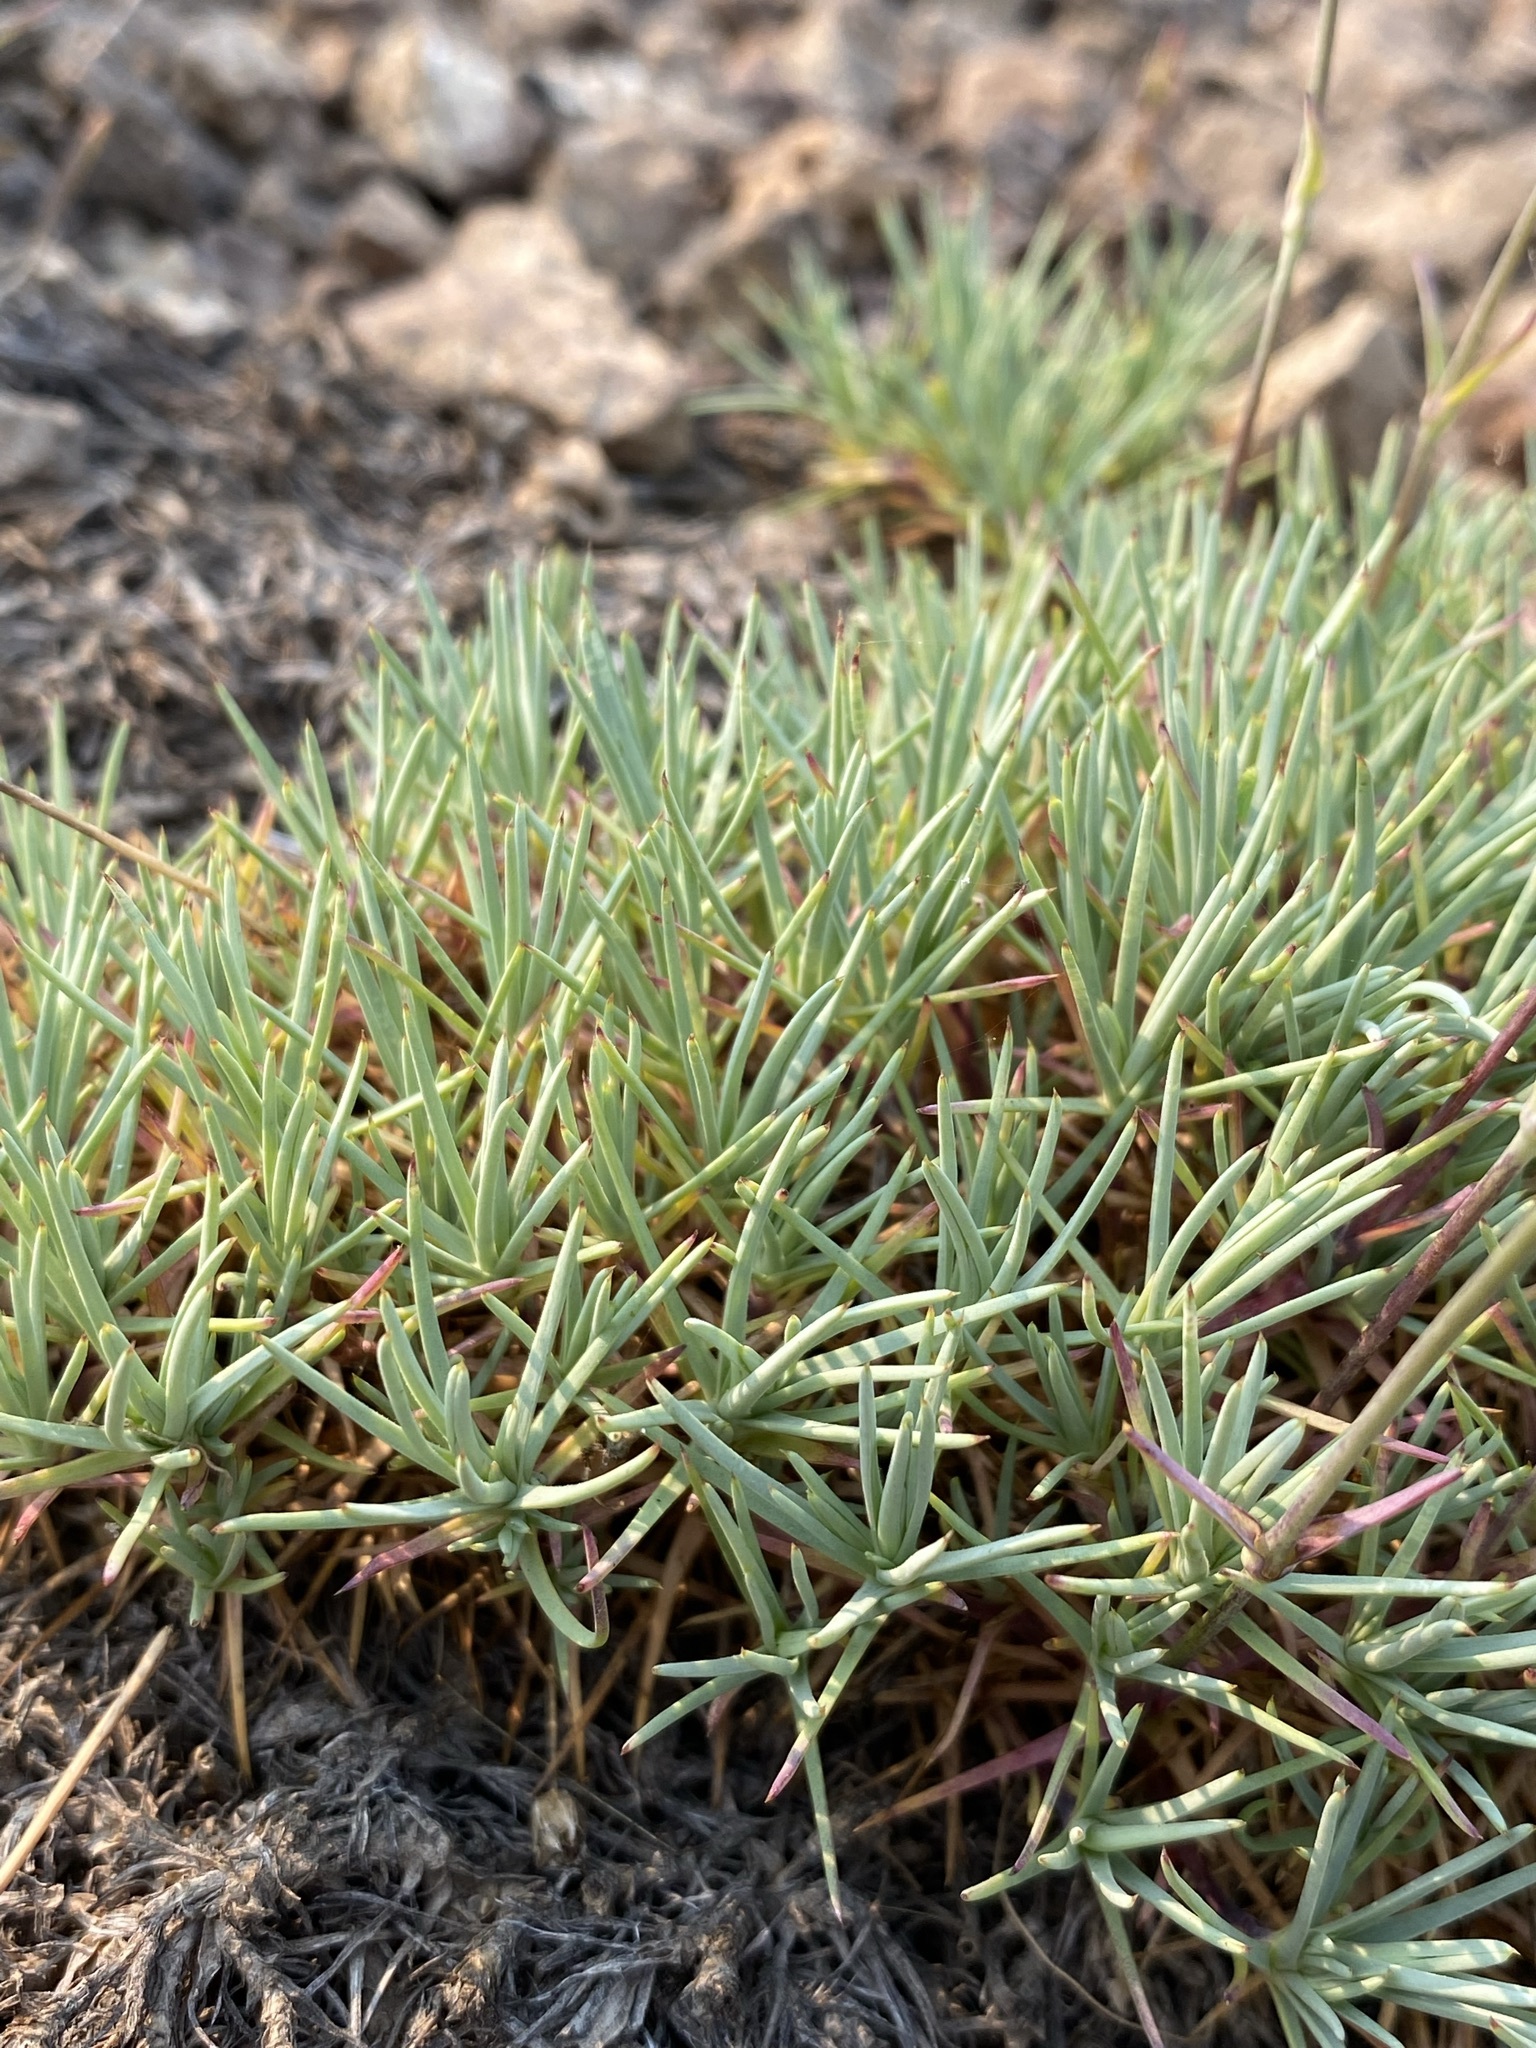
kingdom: Plantae
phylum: Tracheophyta
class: Magnoliopsida
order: Caryophyllales
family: Caryophyllaceae
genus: Eremogone
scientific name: Eremogone aculeata
